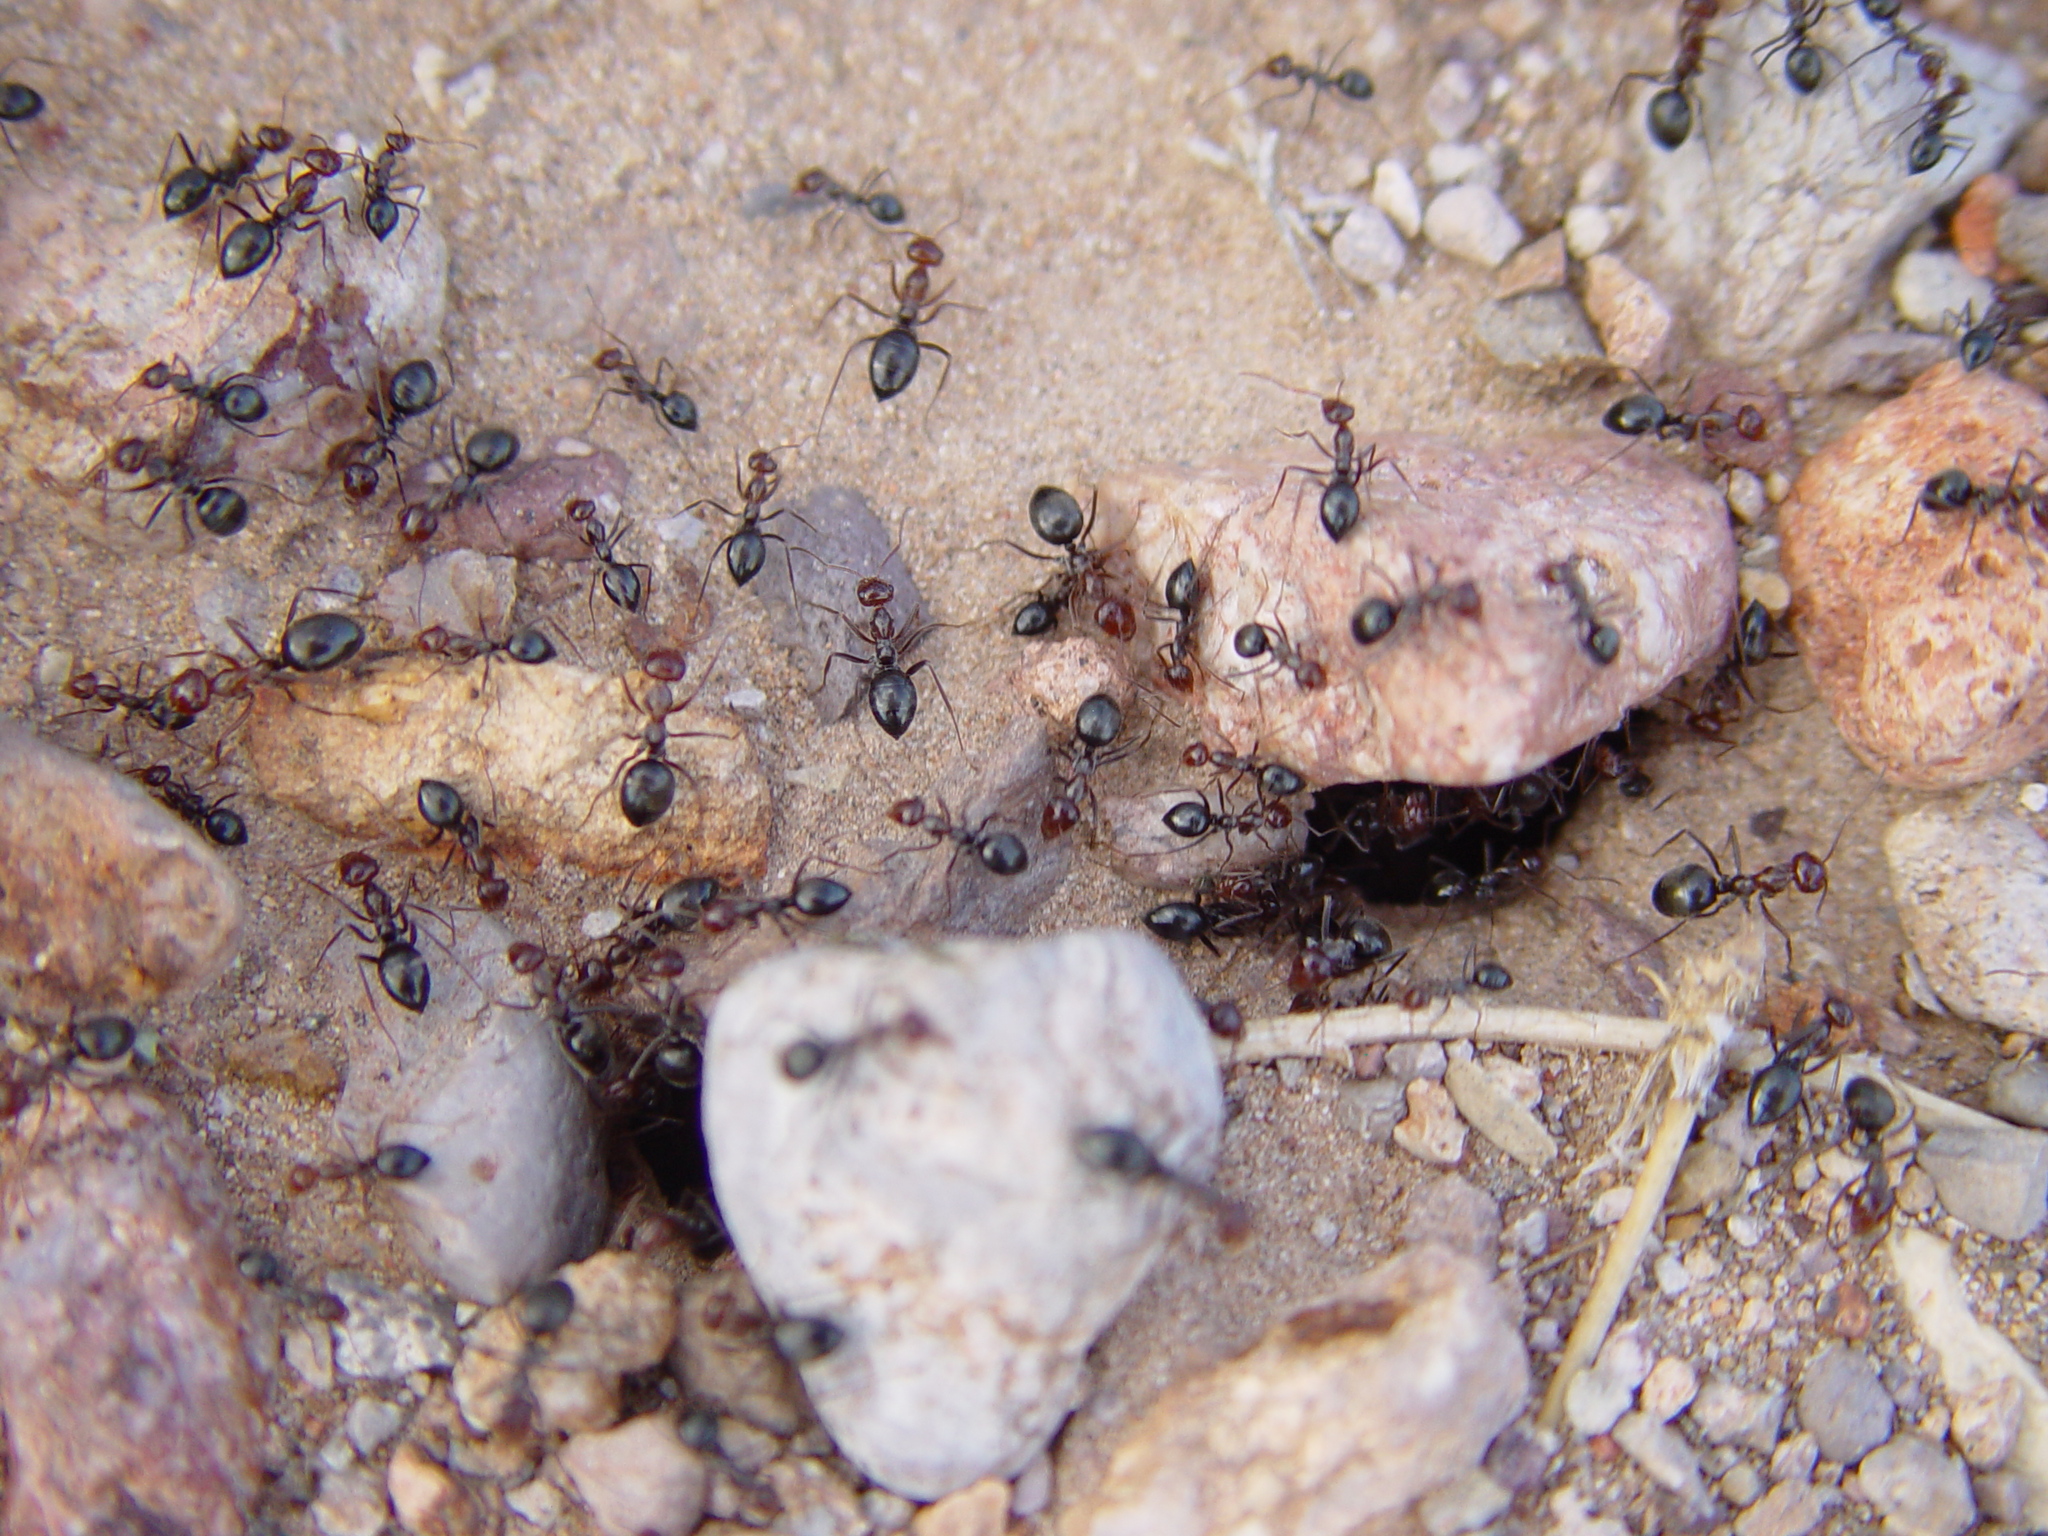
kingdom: Animalia
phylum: Arthropoda
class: Insecta
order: Hymenoptera
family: Formicidae
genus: Myrmecocystus
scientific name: Myrmecocystus mimicus
